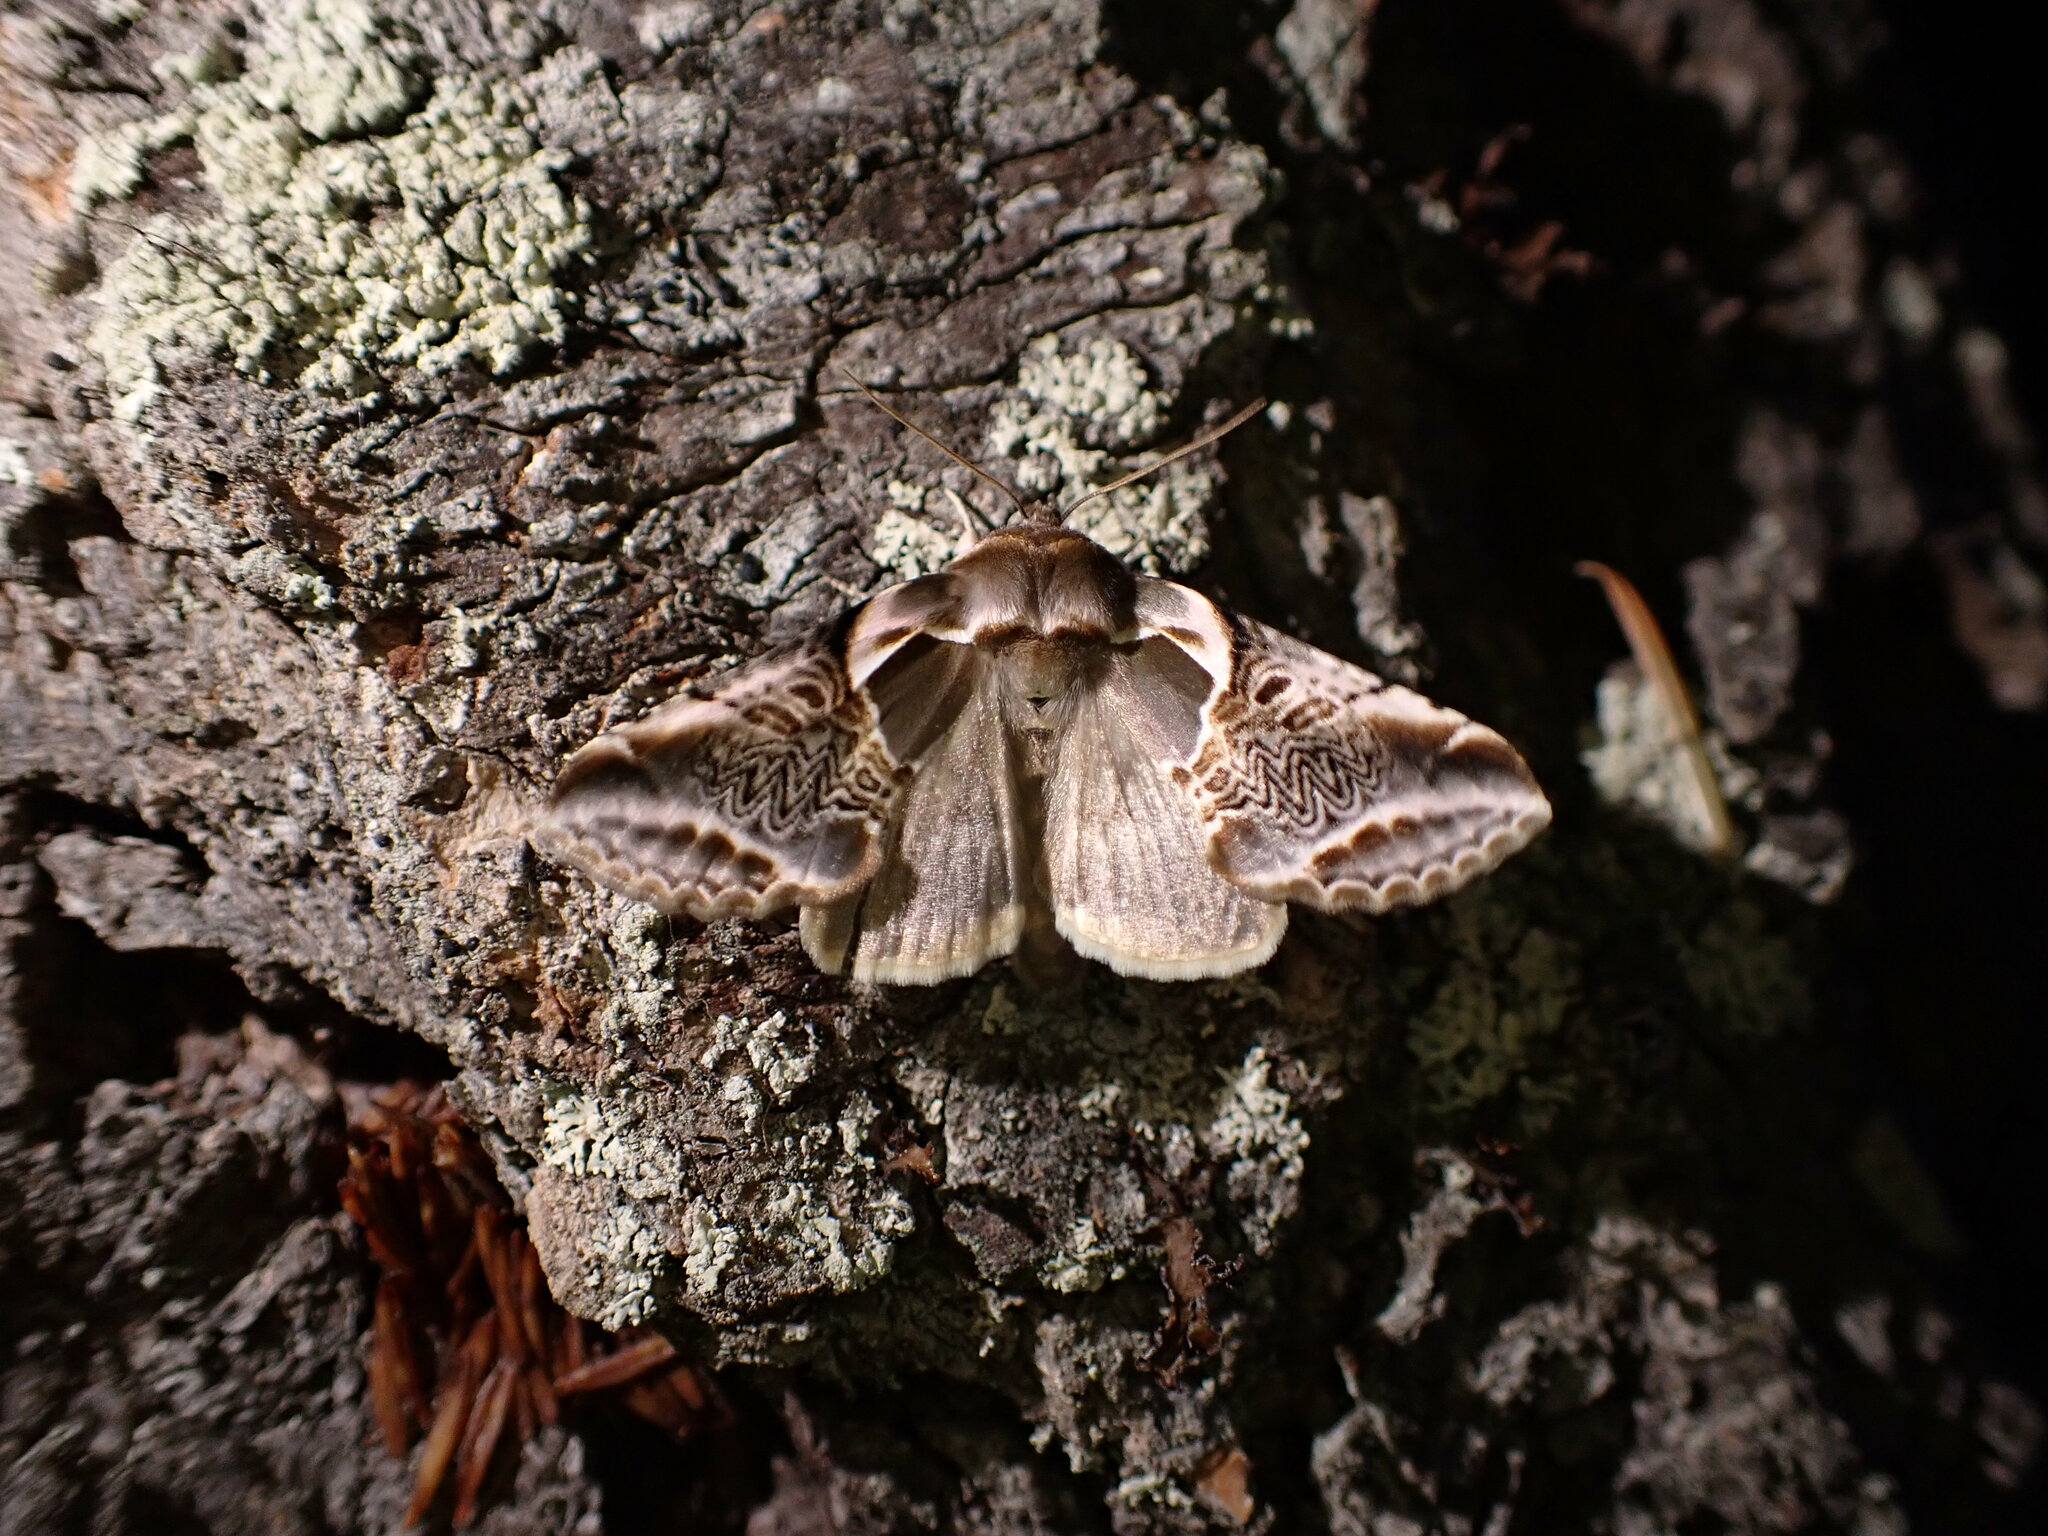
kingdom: Animalia
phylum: Arthropoda
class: Insecta
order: Lepidoptera
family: Drepanidae
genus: Habrosyne
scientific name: Habrosyne scripta
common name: Lettered habrosyne moth
